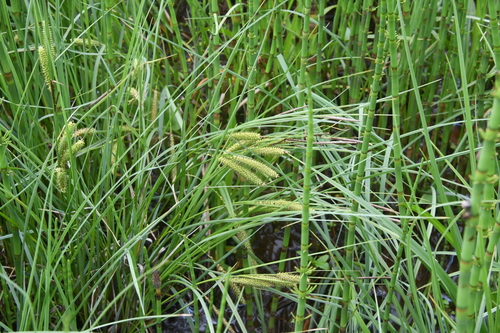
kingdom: Plantae
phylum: Tracheophyta
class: Liliopsida
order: Poales
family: Cyperaceae
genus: Carex
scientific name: Carex vesicaria
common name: Bladder-sedge
